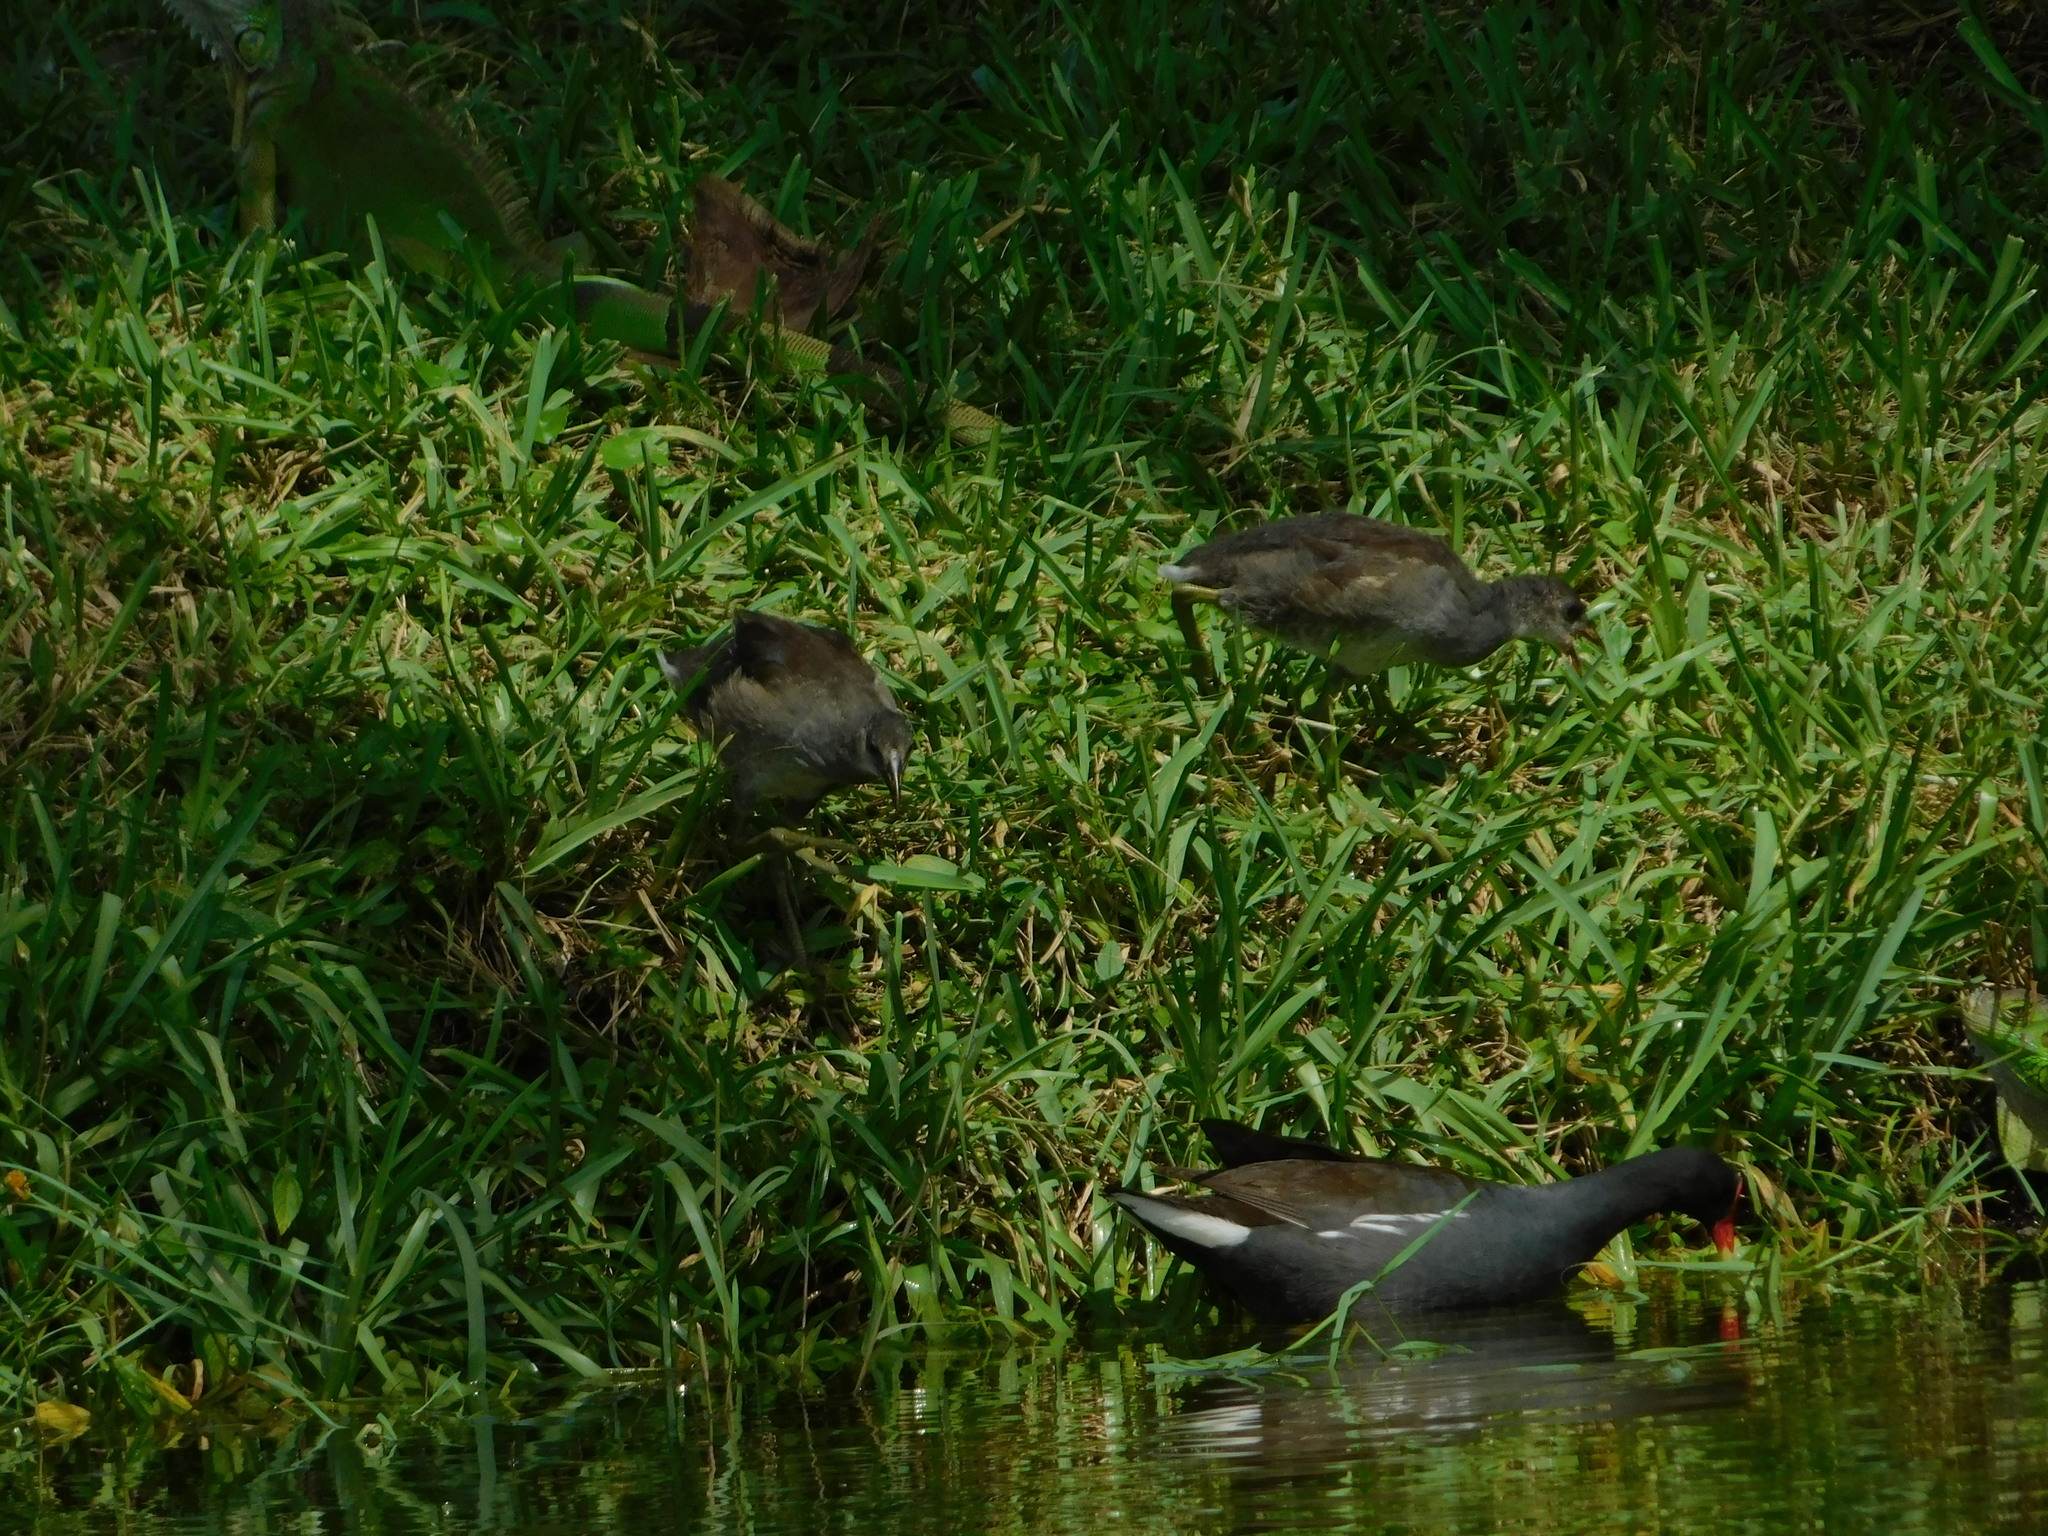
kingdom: Animalia
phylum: Chordata
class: Aves
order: Gruiformes
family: Rallidae
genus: Gallinula
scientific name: Gallinula chloropus
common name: Common moorhen
